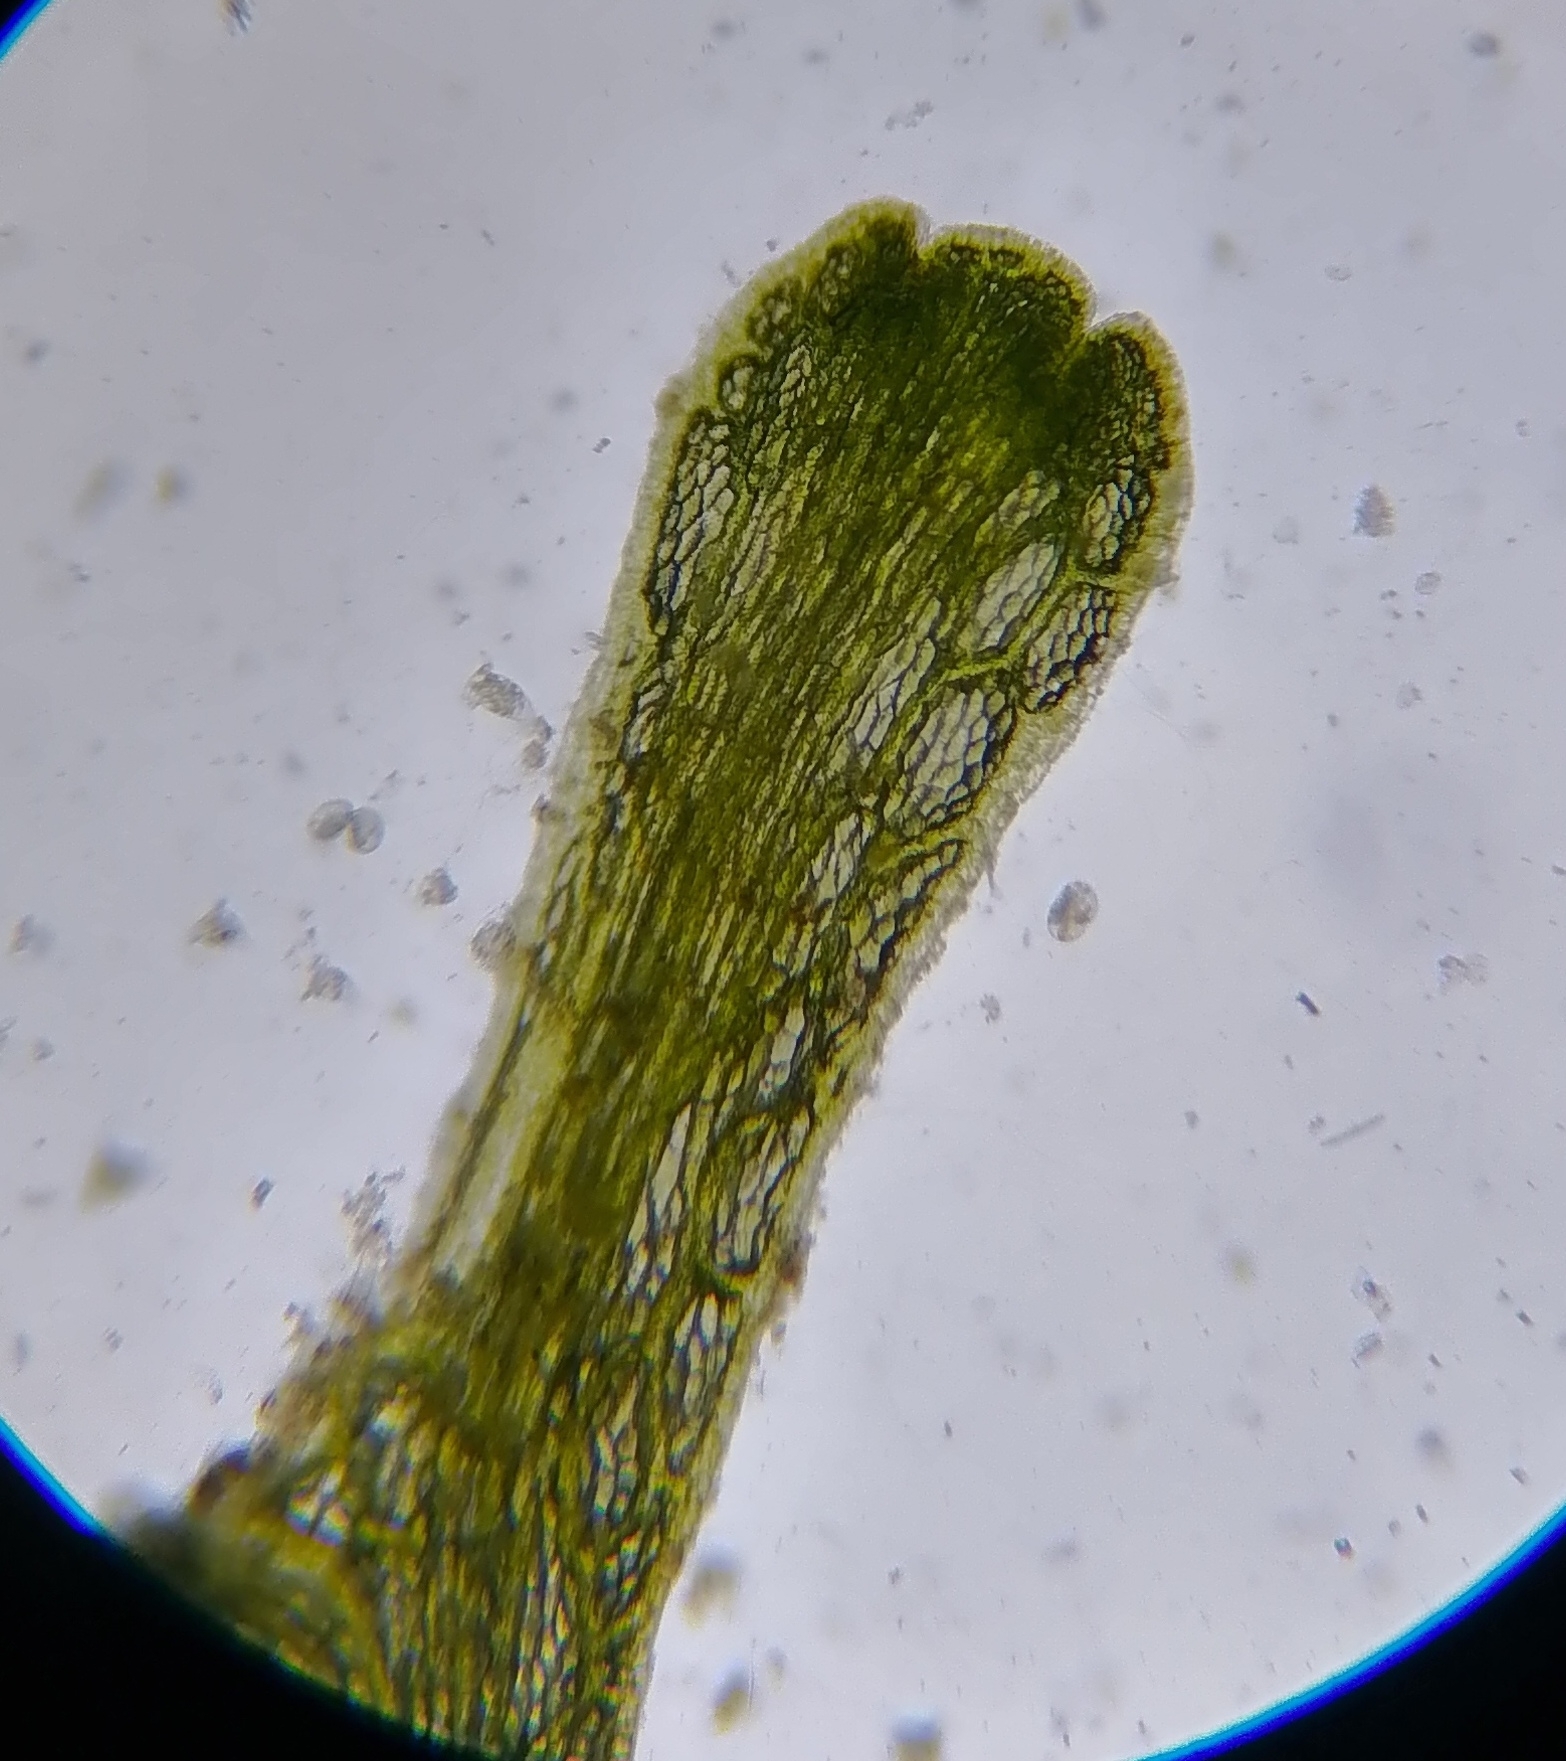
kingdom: Plantae
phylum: Marchantiophyta
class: Marchantiopsida
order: Marchantiales
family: Ricciaceae
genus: Riccia
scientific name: Riccia fluitans
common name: Floating crystalwort
